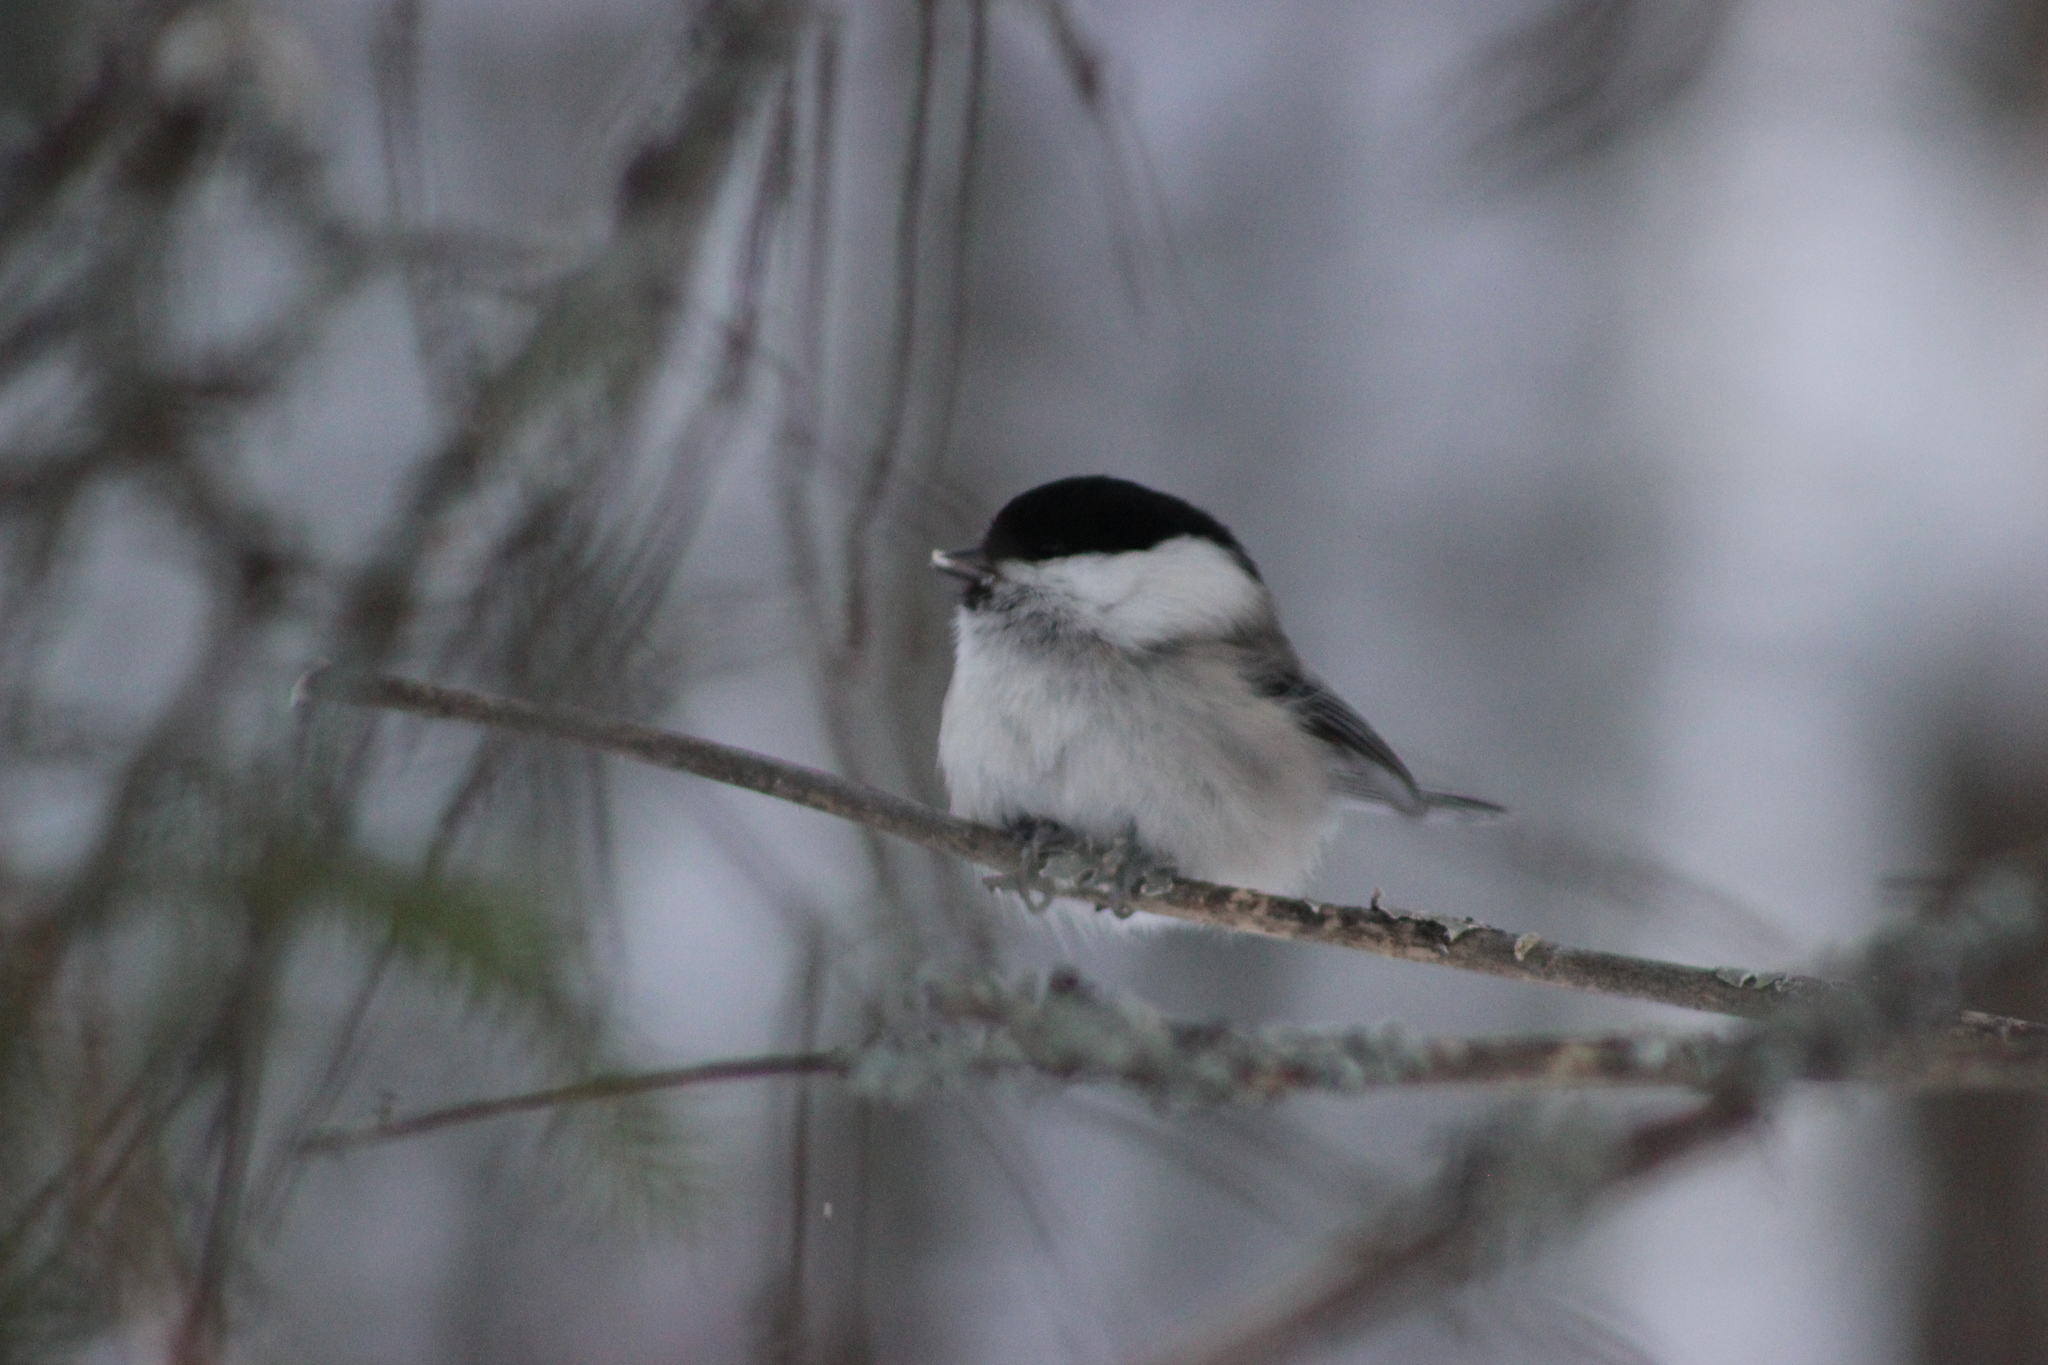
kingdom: Animalia
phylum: Chordata
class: Aves
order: Passeriformes
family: Paridae
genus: Poecile
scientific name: Poecile montanus
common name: Willow tit
